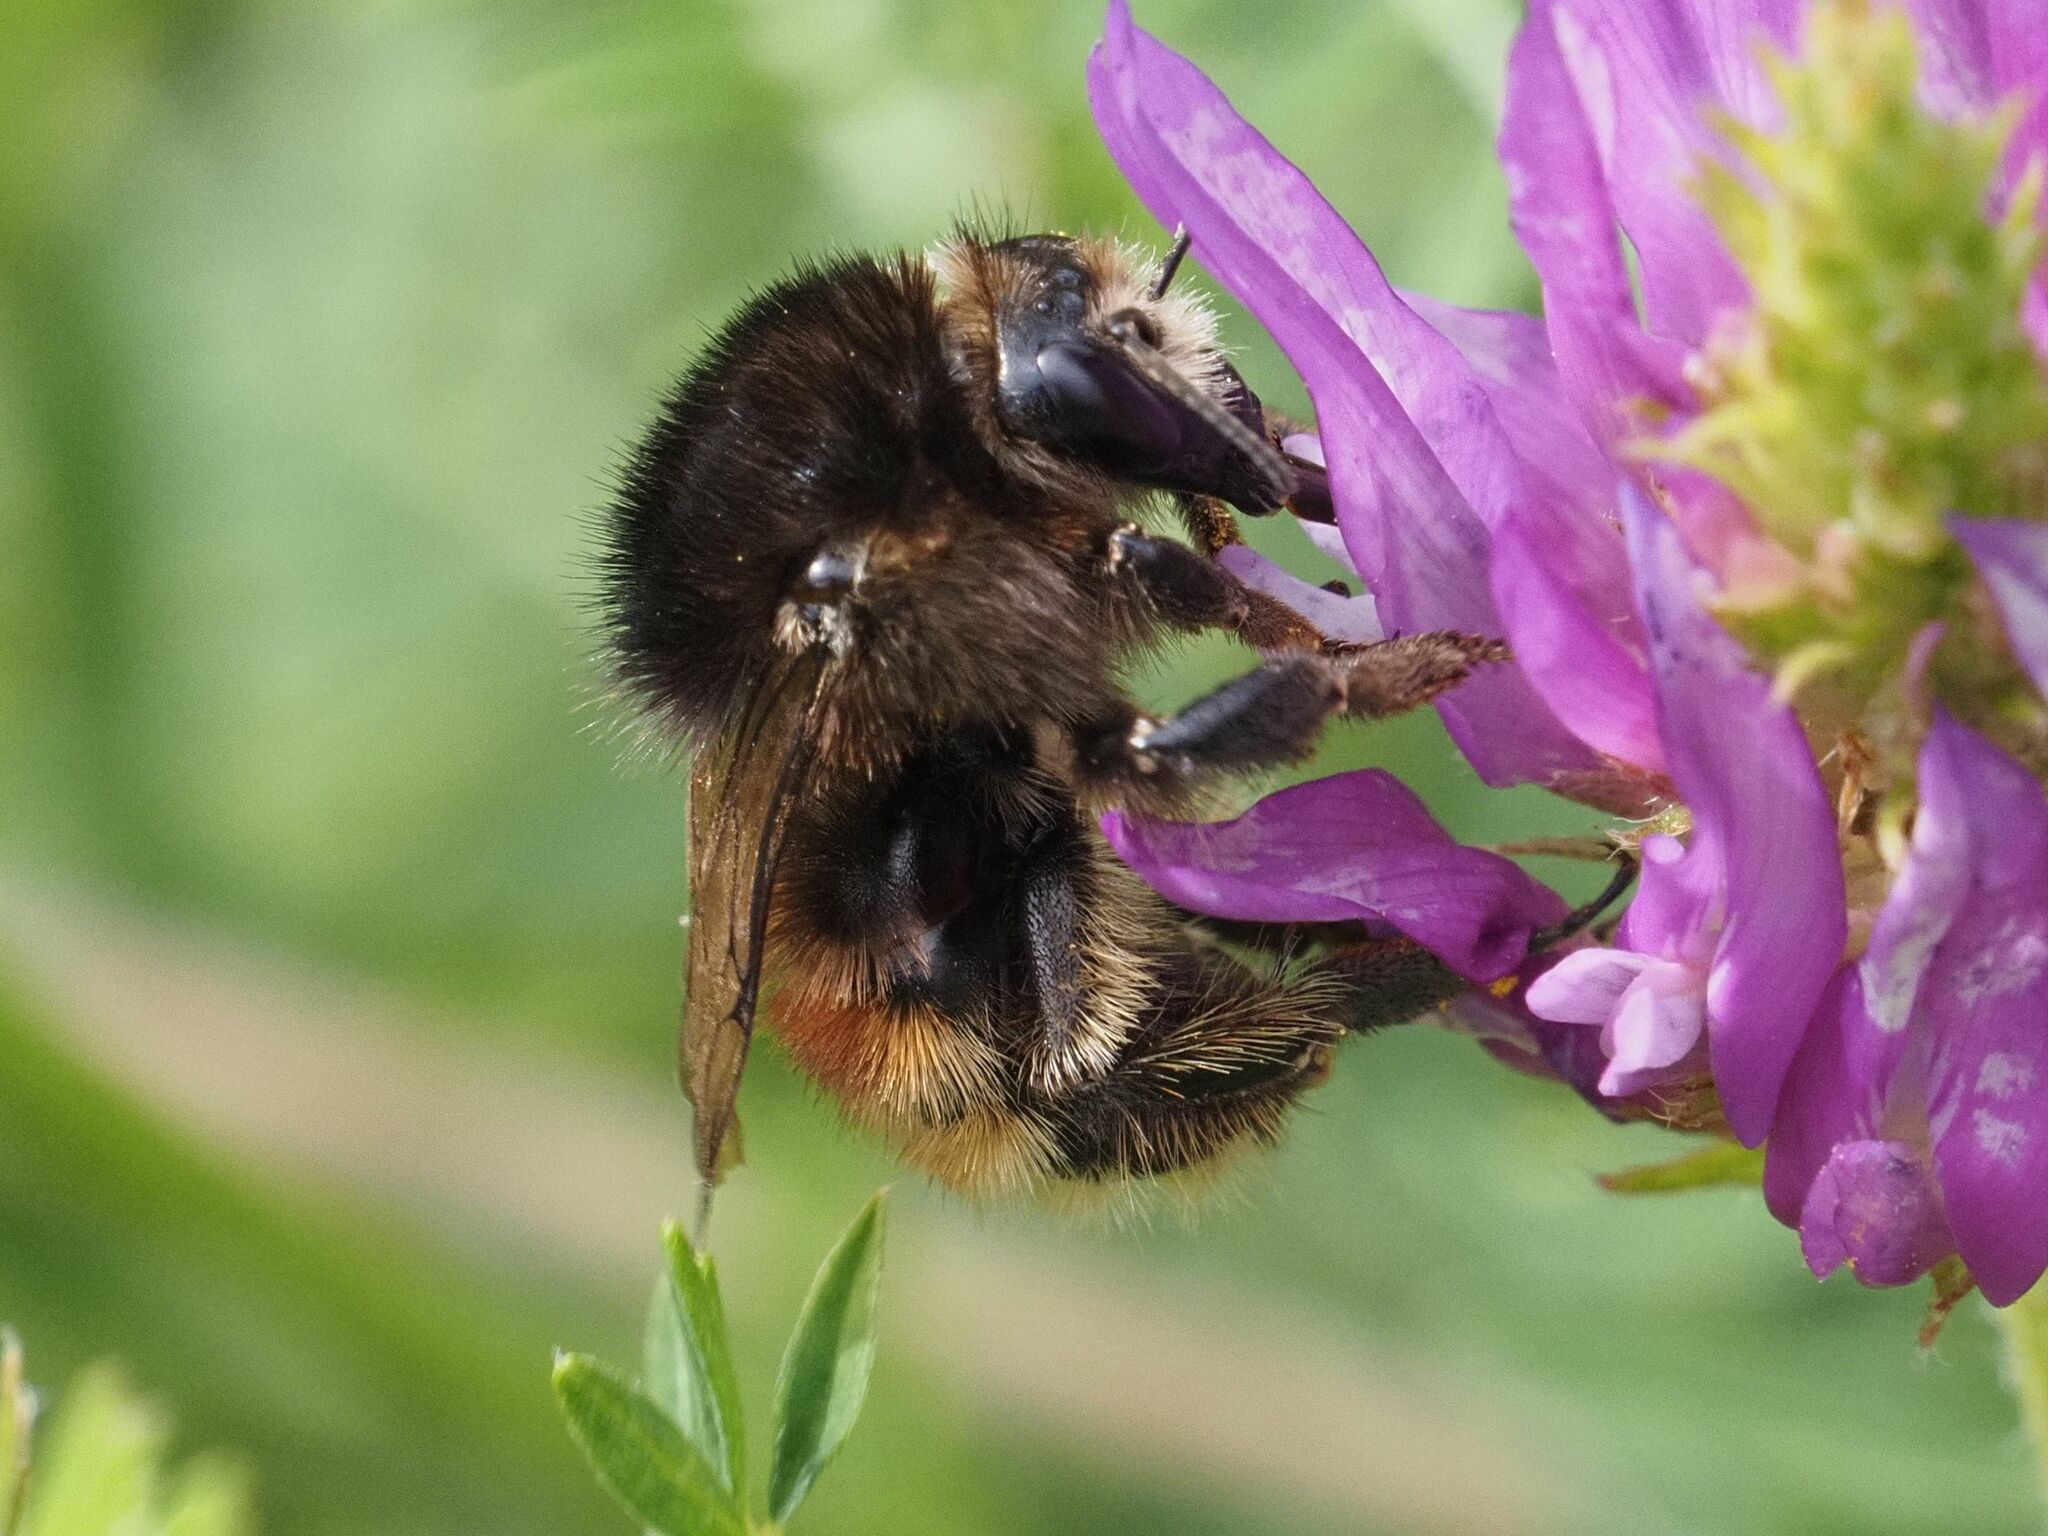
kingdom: Animalia
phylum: Arthropoda
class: Insecta
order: Hymenoptera
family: Apidae
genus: Bombus
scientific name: Bombus humilis
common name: Brown-banded carder-bee
